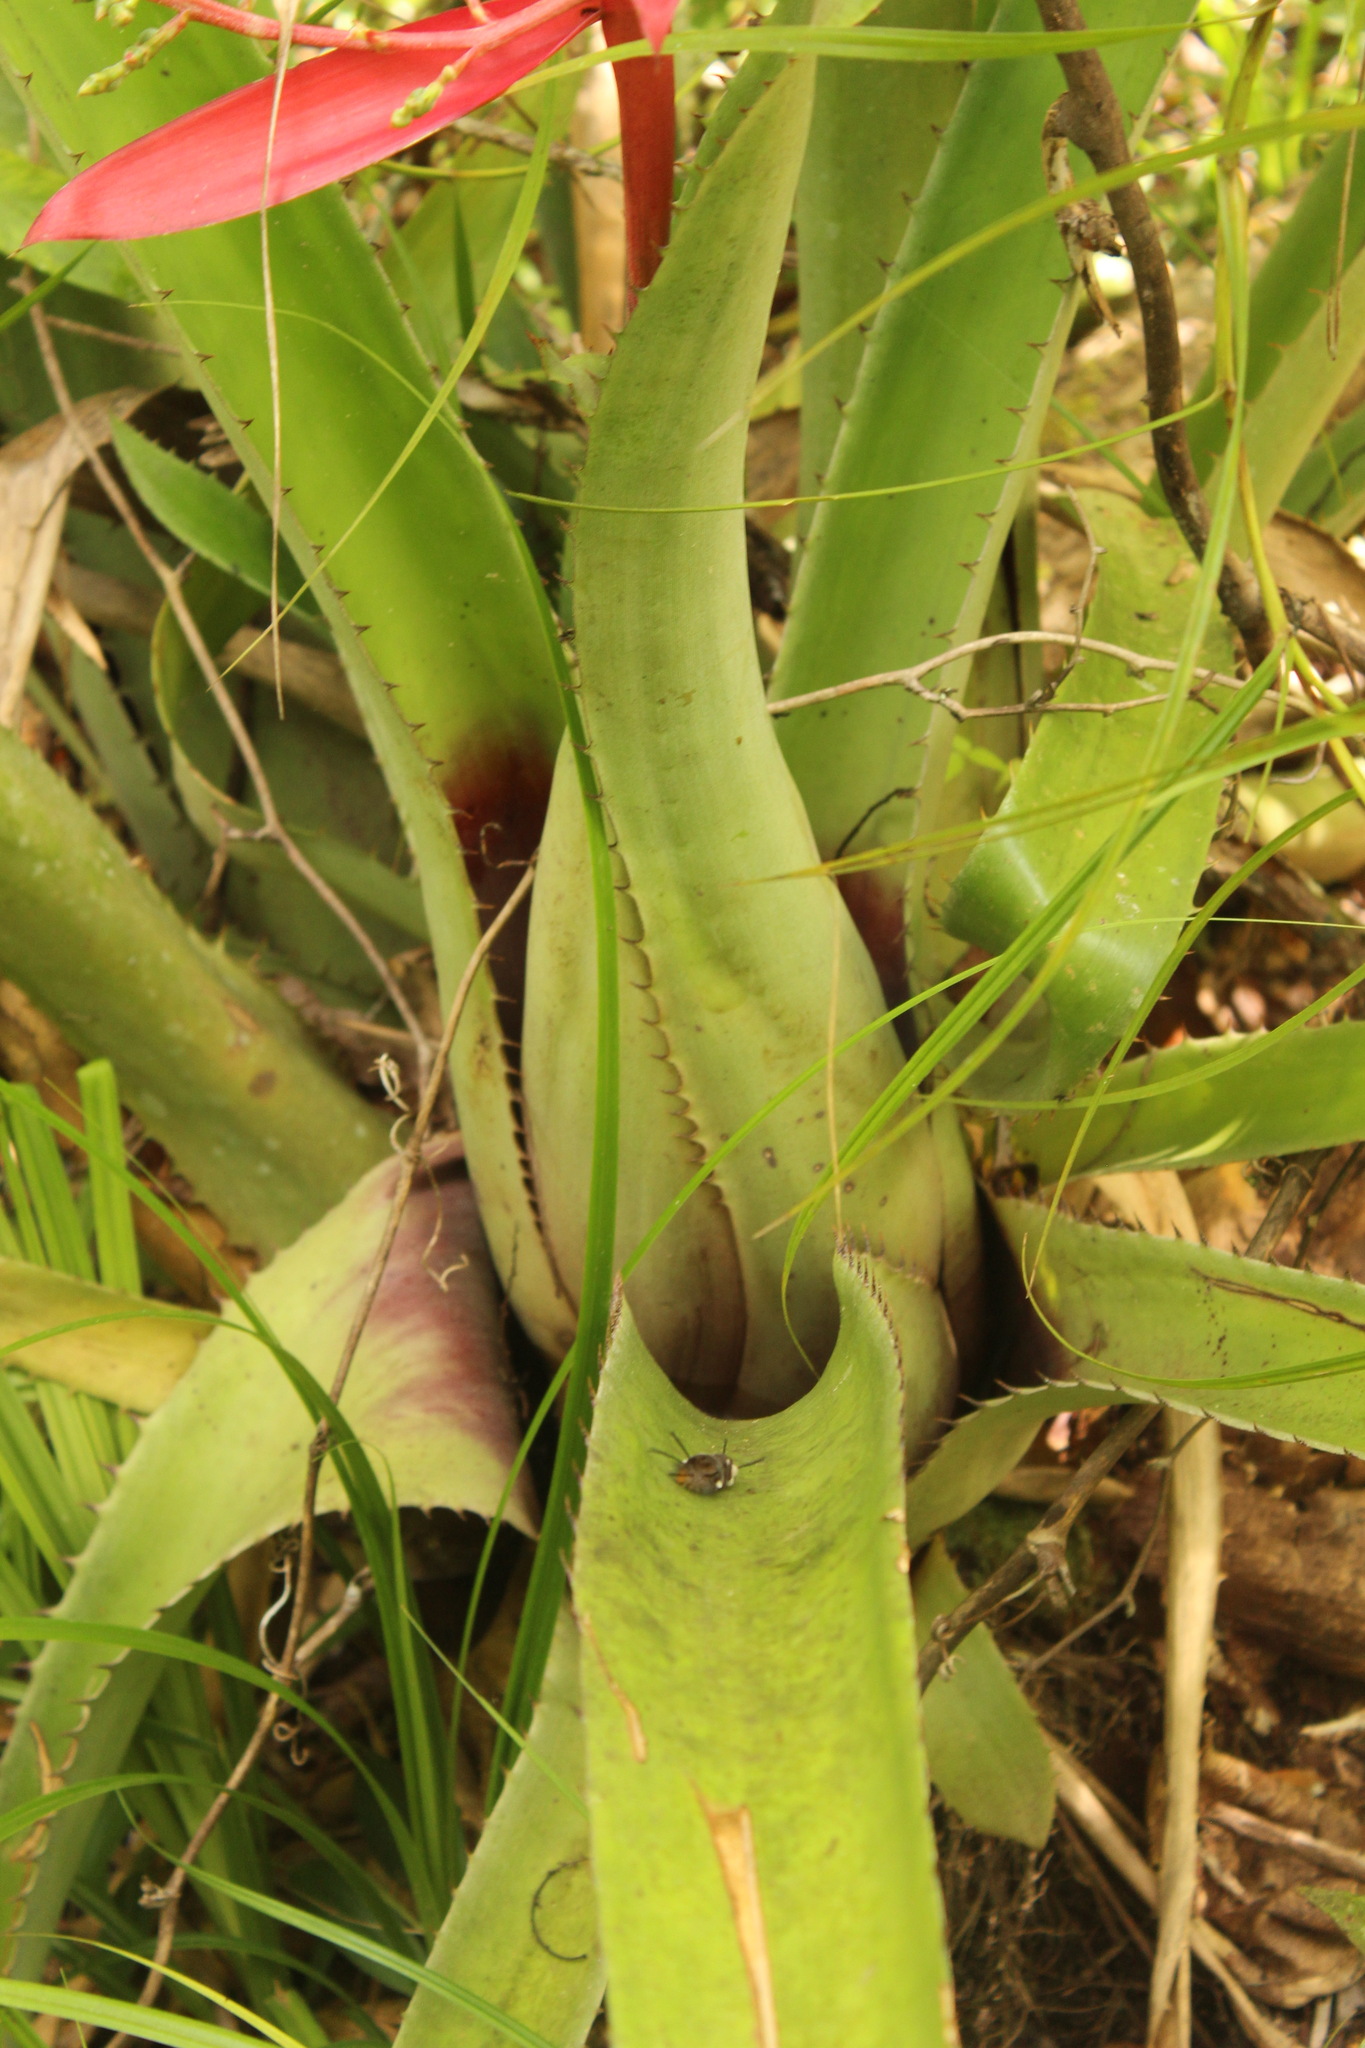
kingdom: Plantae
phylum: Tracheophyta
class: Liliopsida
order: Poales
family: Bromeliaceae
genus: Aechmea
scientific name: Aechmea bracteata
